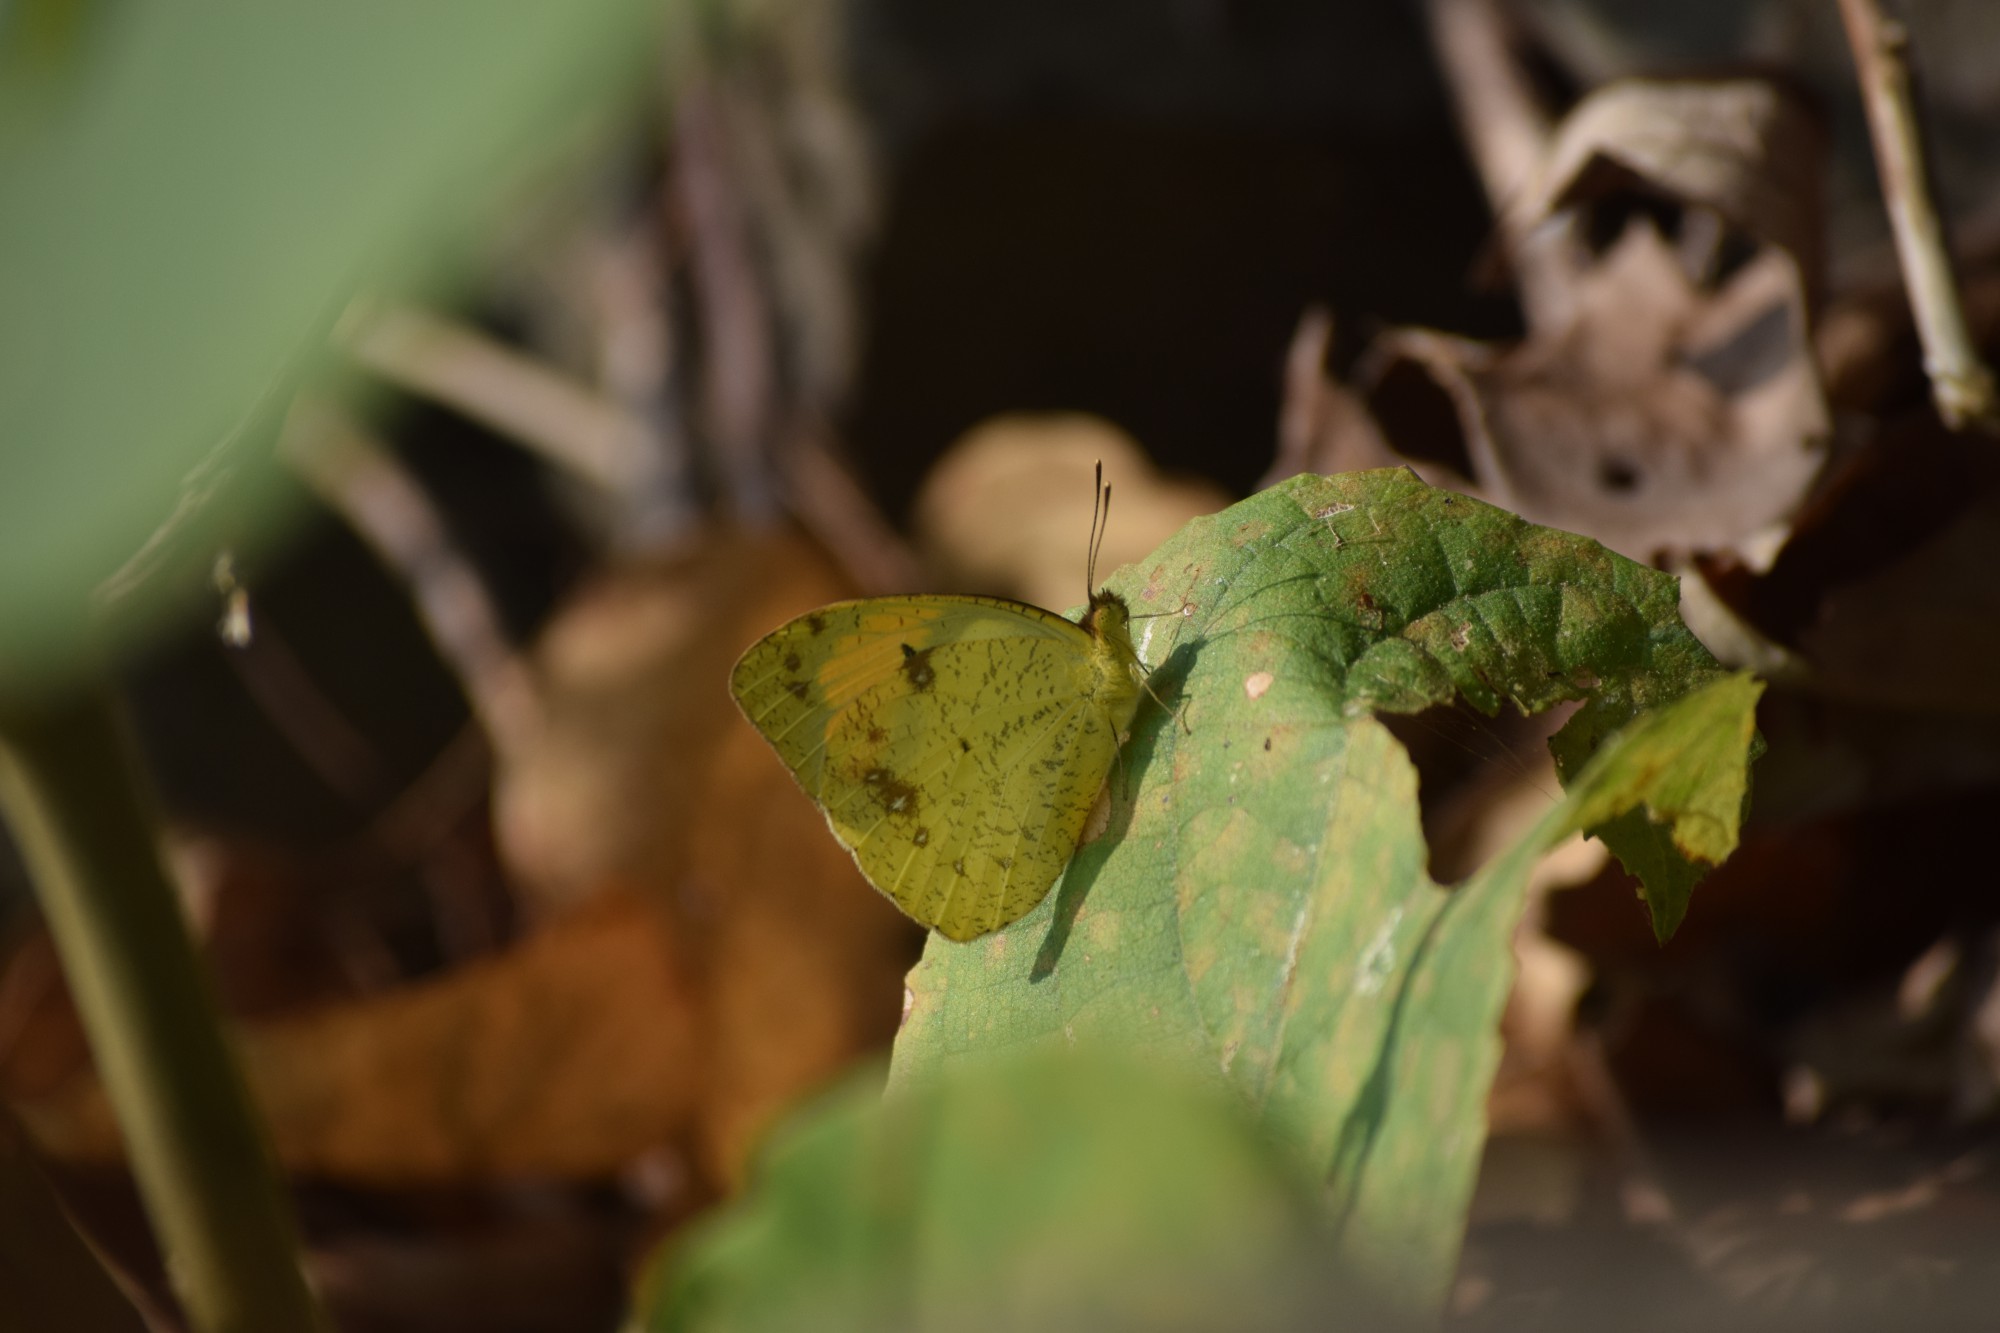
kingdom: Animalia
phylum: Arthropoda
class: Insecta
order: Lepidoptera
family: Pieridae
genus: Ixias
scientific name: Ixias pyrene
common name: Yellow orange tip
